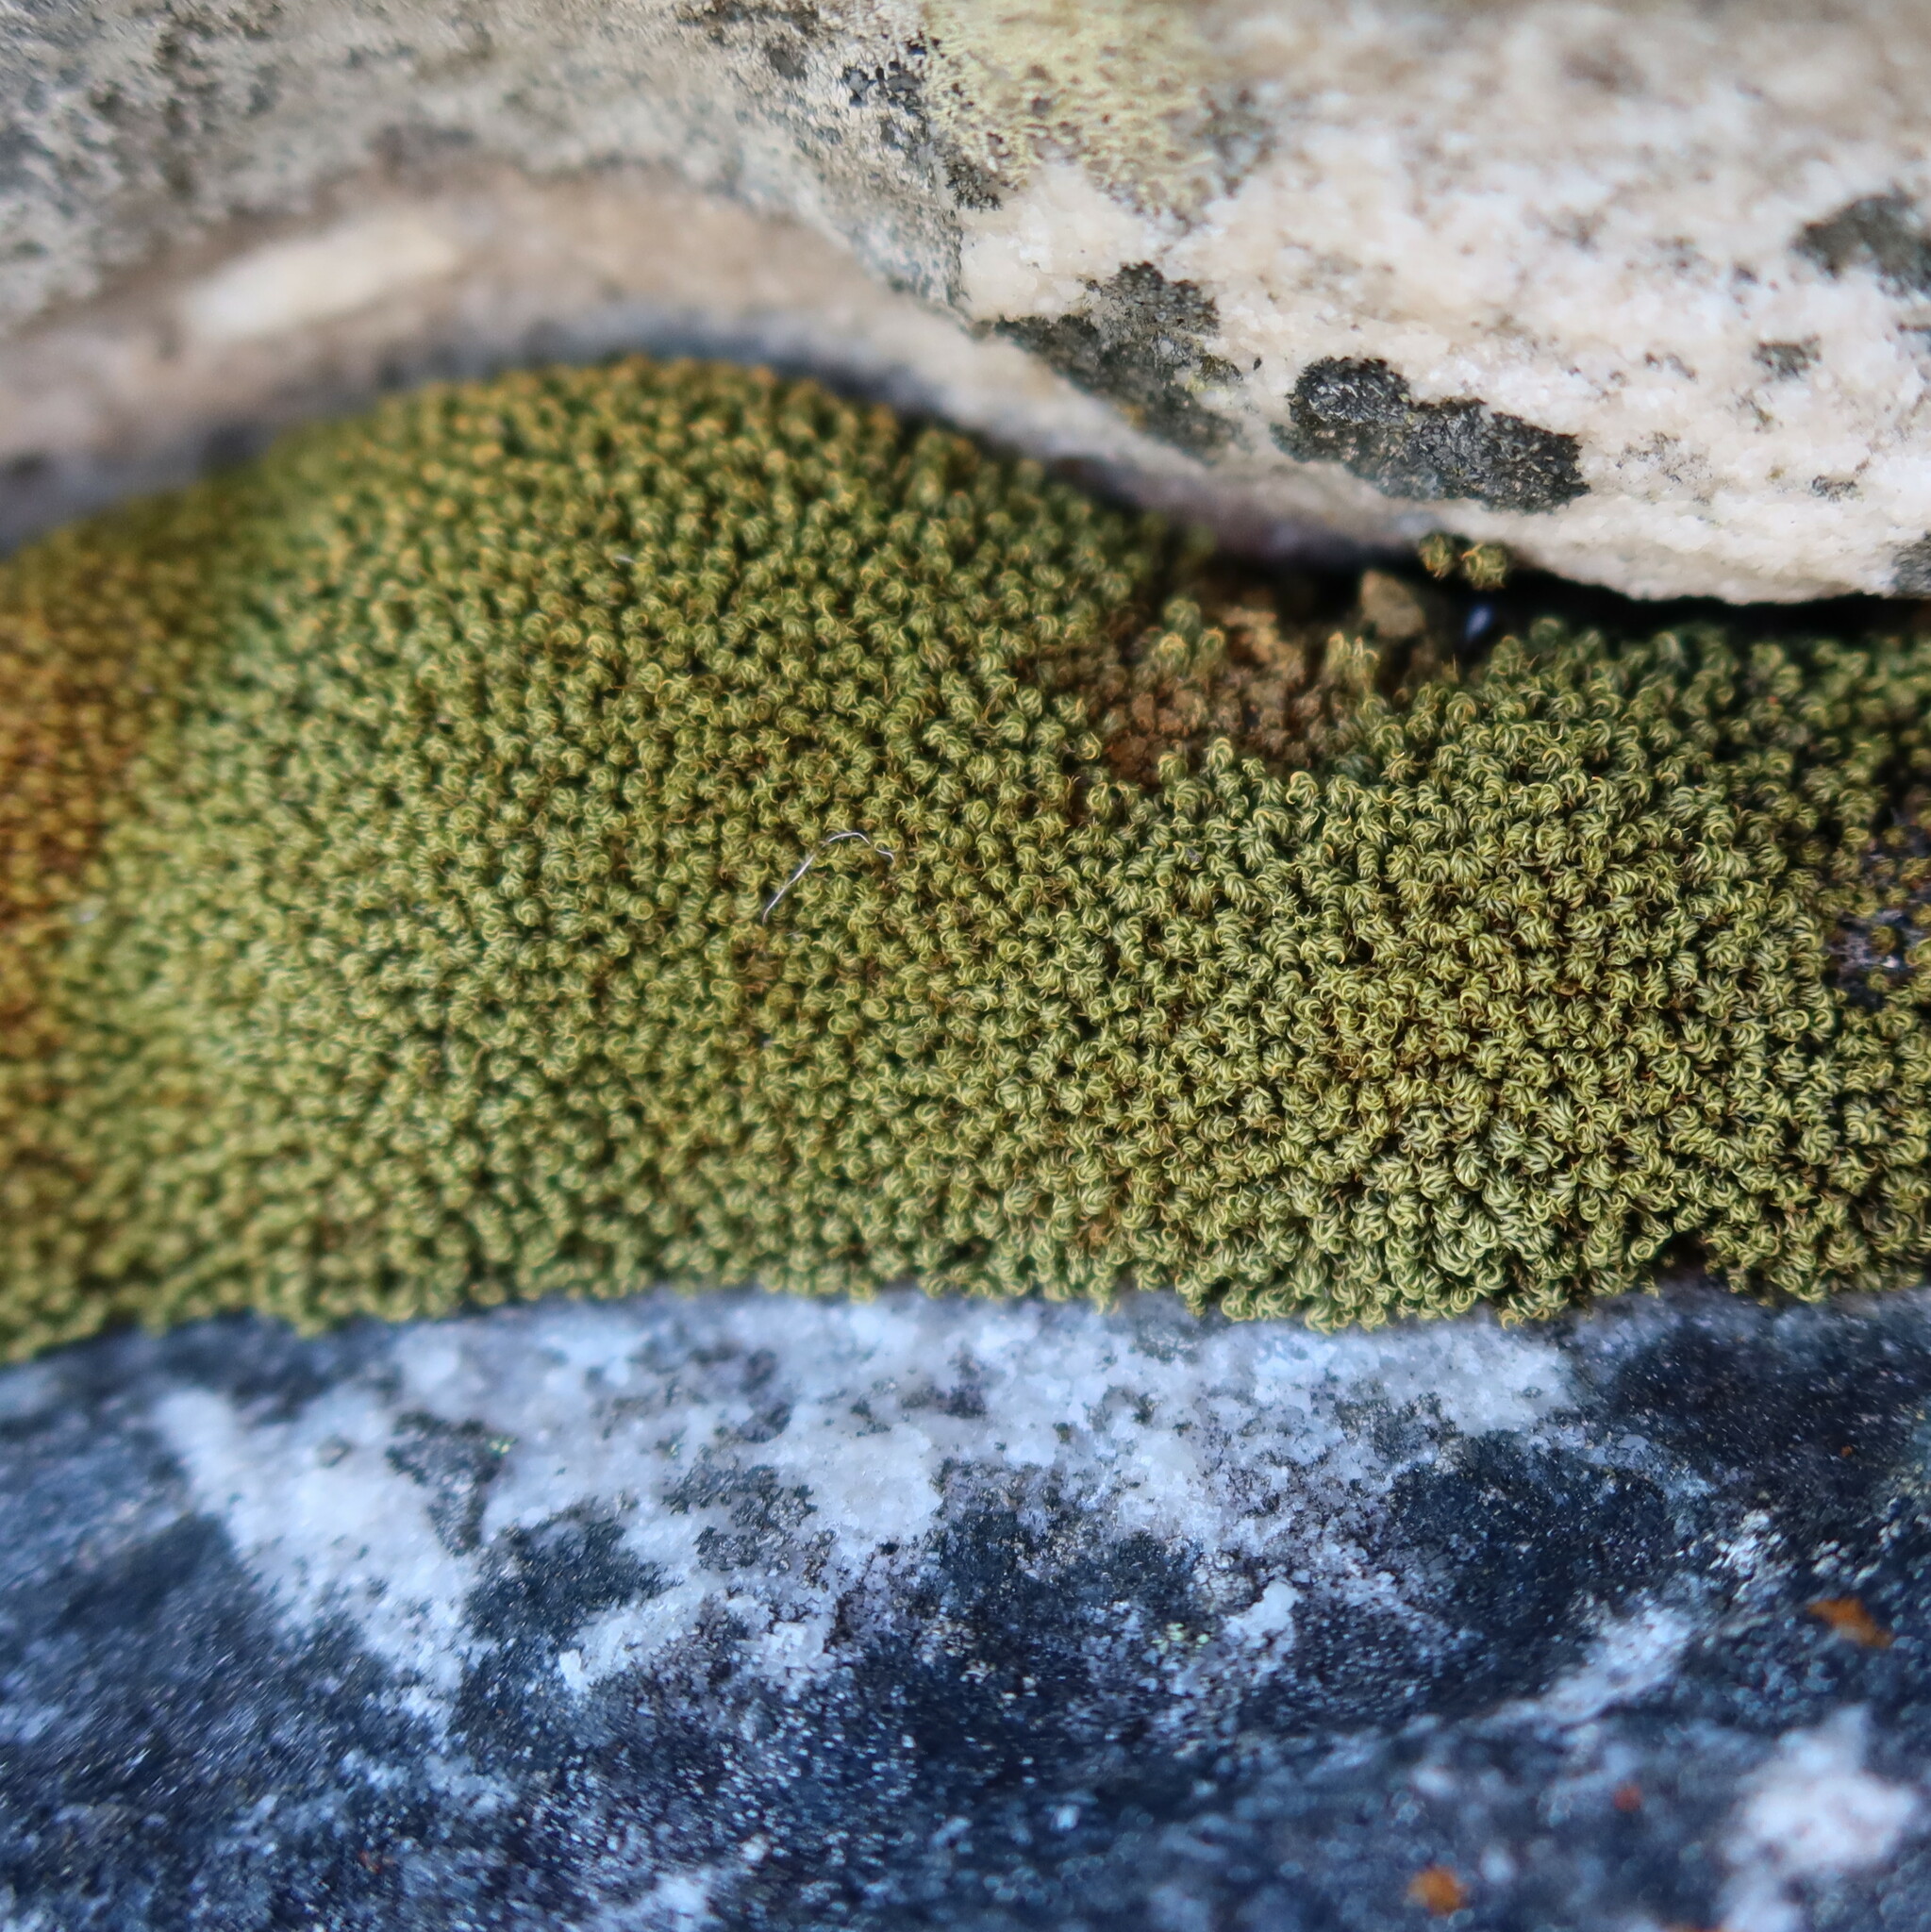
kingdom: Plantae
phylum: Bryophyta
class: Bryopsida
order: Dicranales
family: Hypodontiaceae
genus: Hypodontium
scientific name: Hypodontium pomiforme
